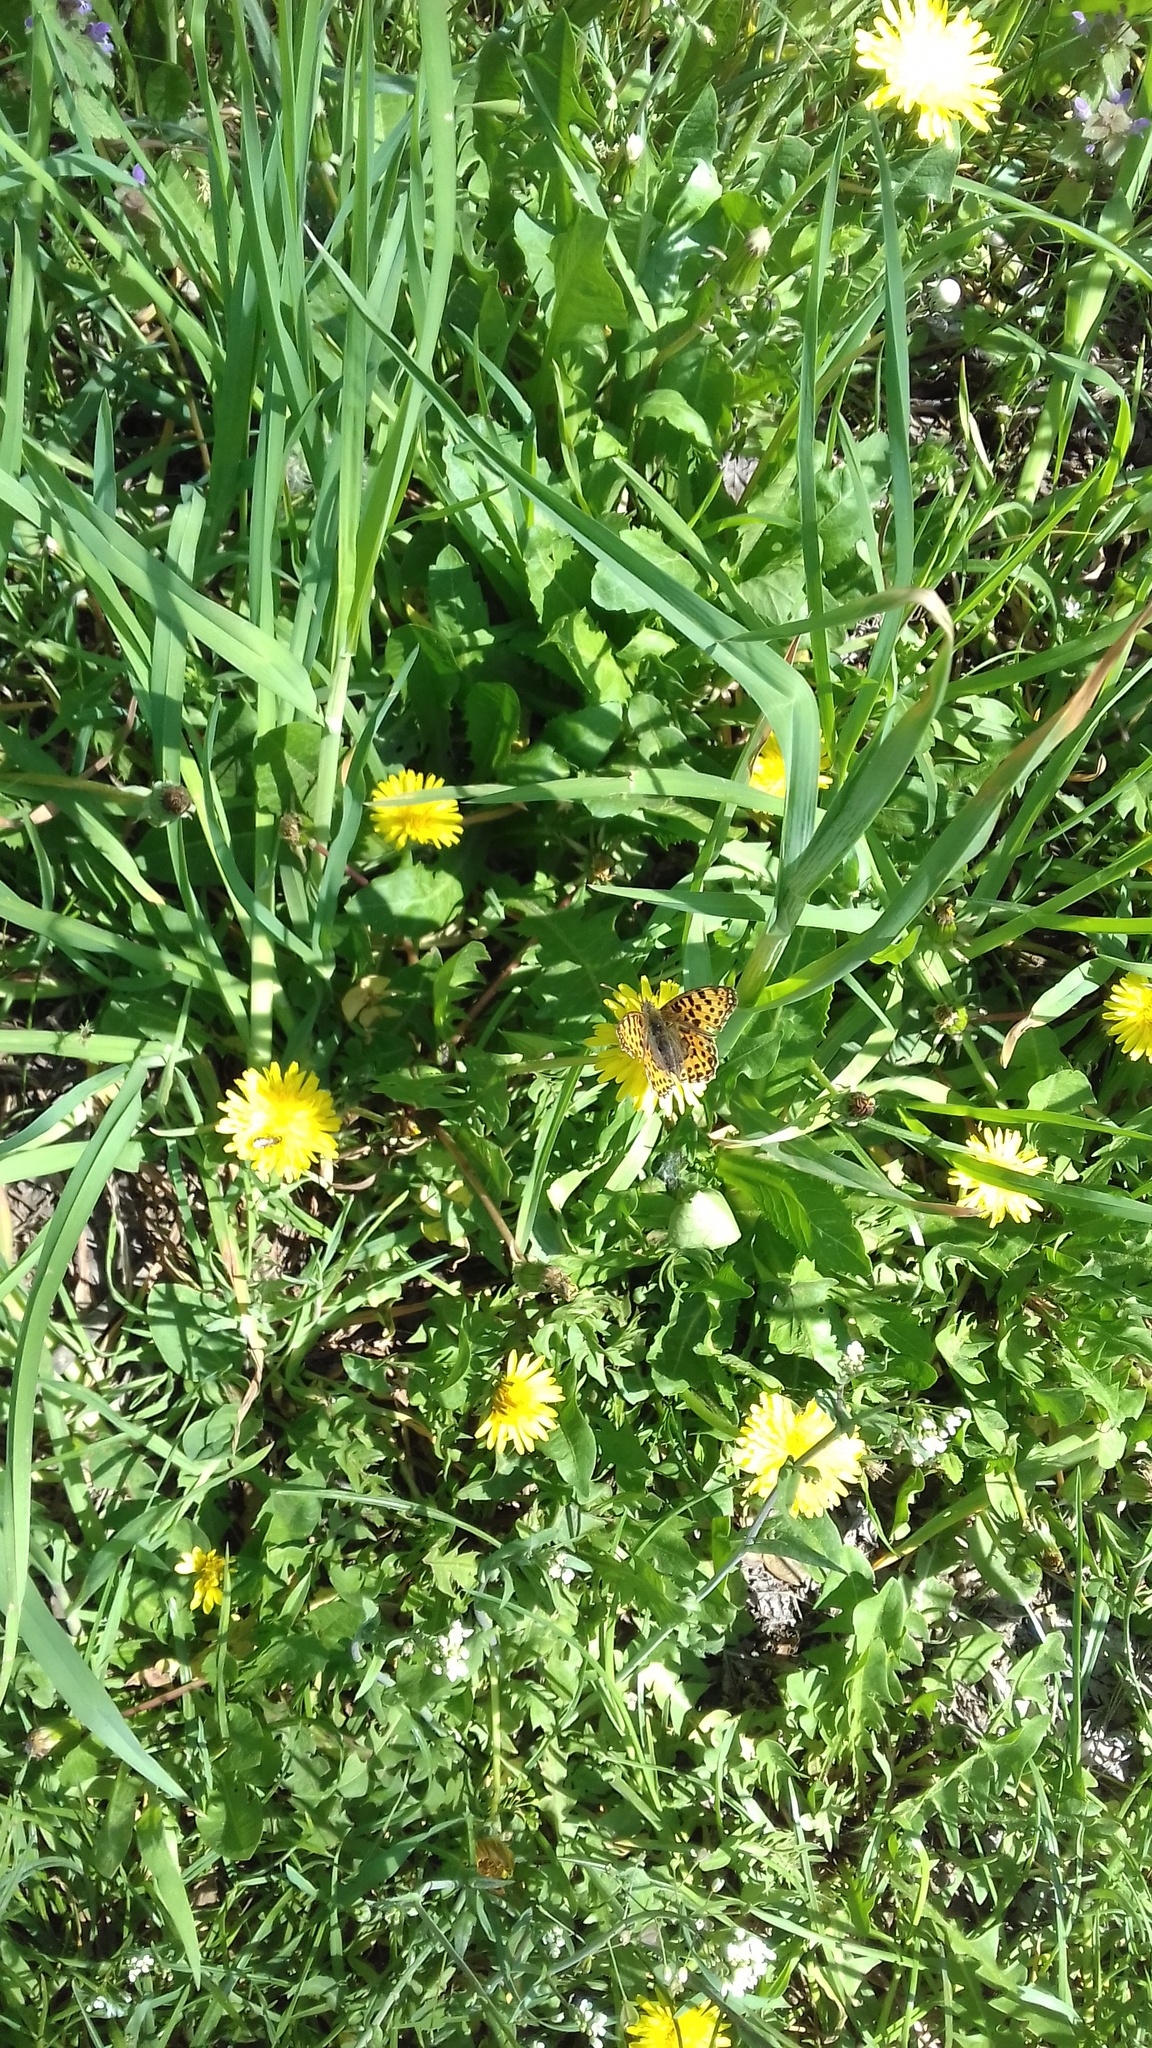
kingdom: Animalia
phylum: Arthropoda
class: Insecta
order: Lepidoptera
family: Nymphalidae
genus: Issoria
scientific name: Issoria lathonia
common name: Queen of spain fritillary
